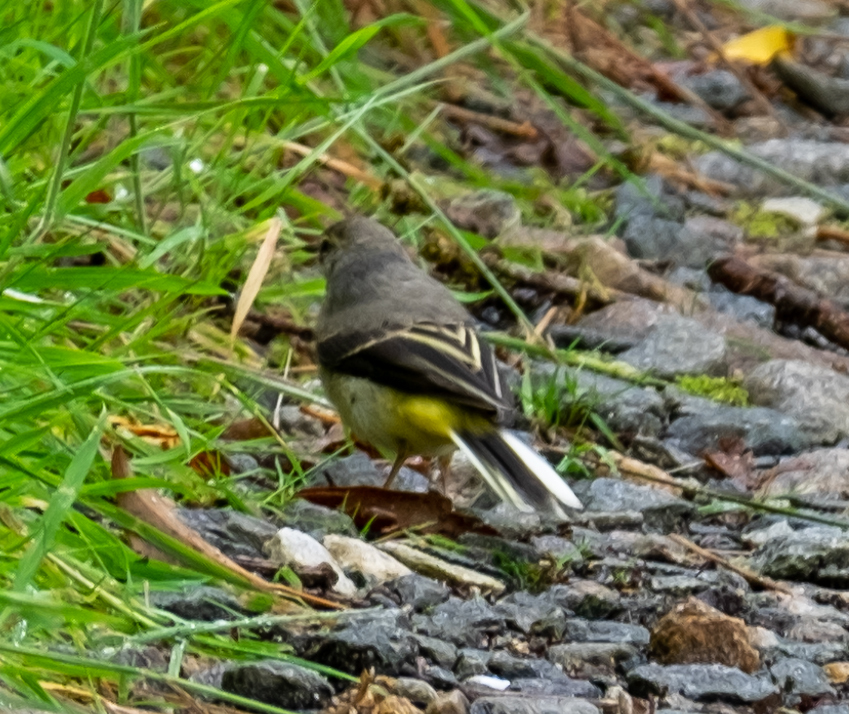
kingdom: Animalia
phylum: Chordata
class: Aves
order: Passeriformes
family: Motacillidae
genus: Motacilla
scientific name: Motacilla cinerea
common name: Grey wagtail
